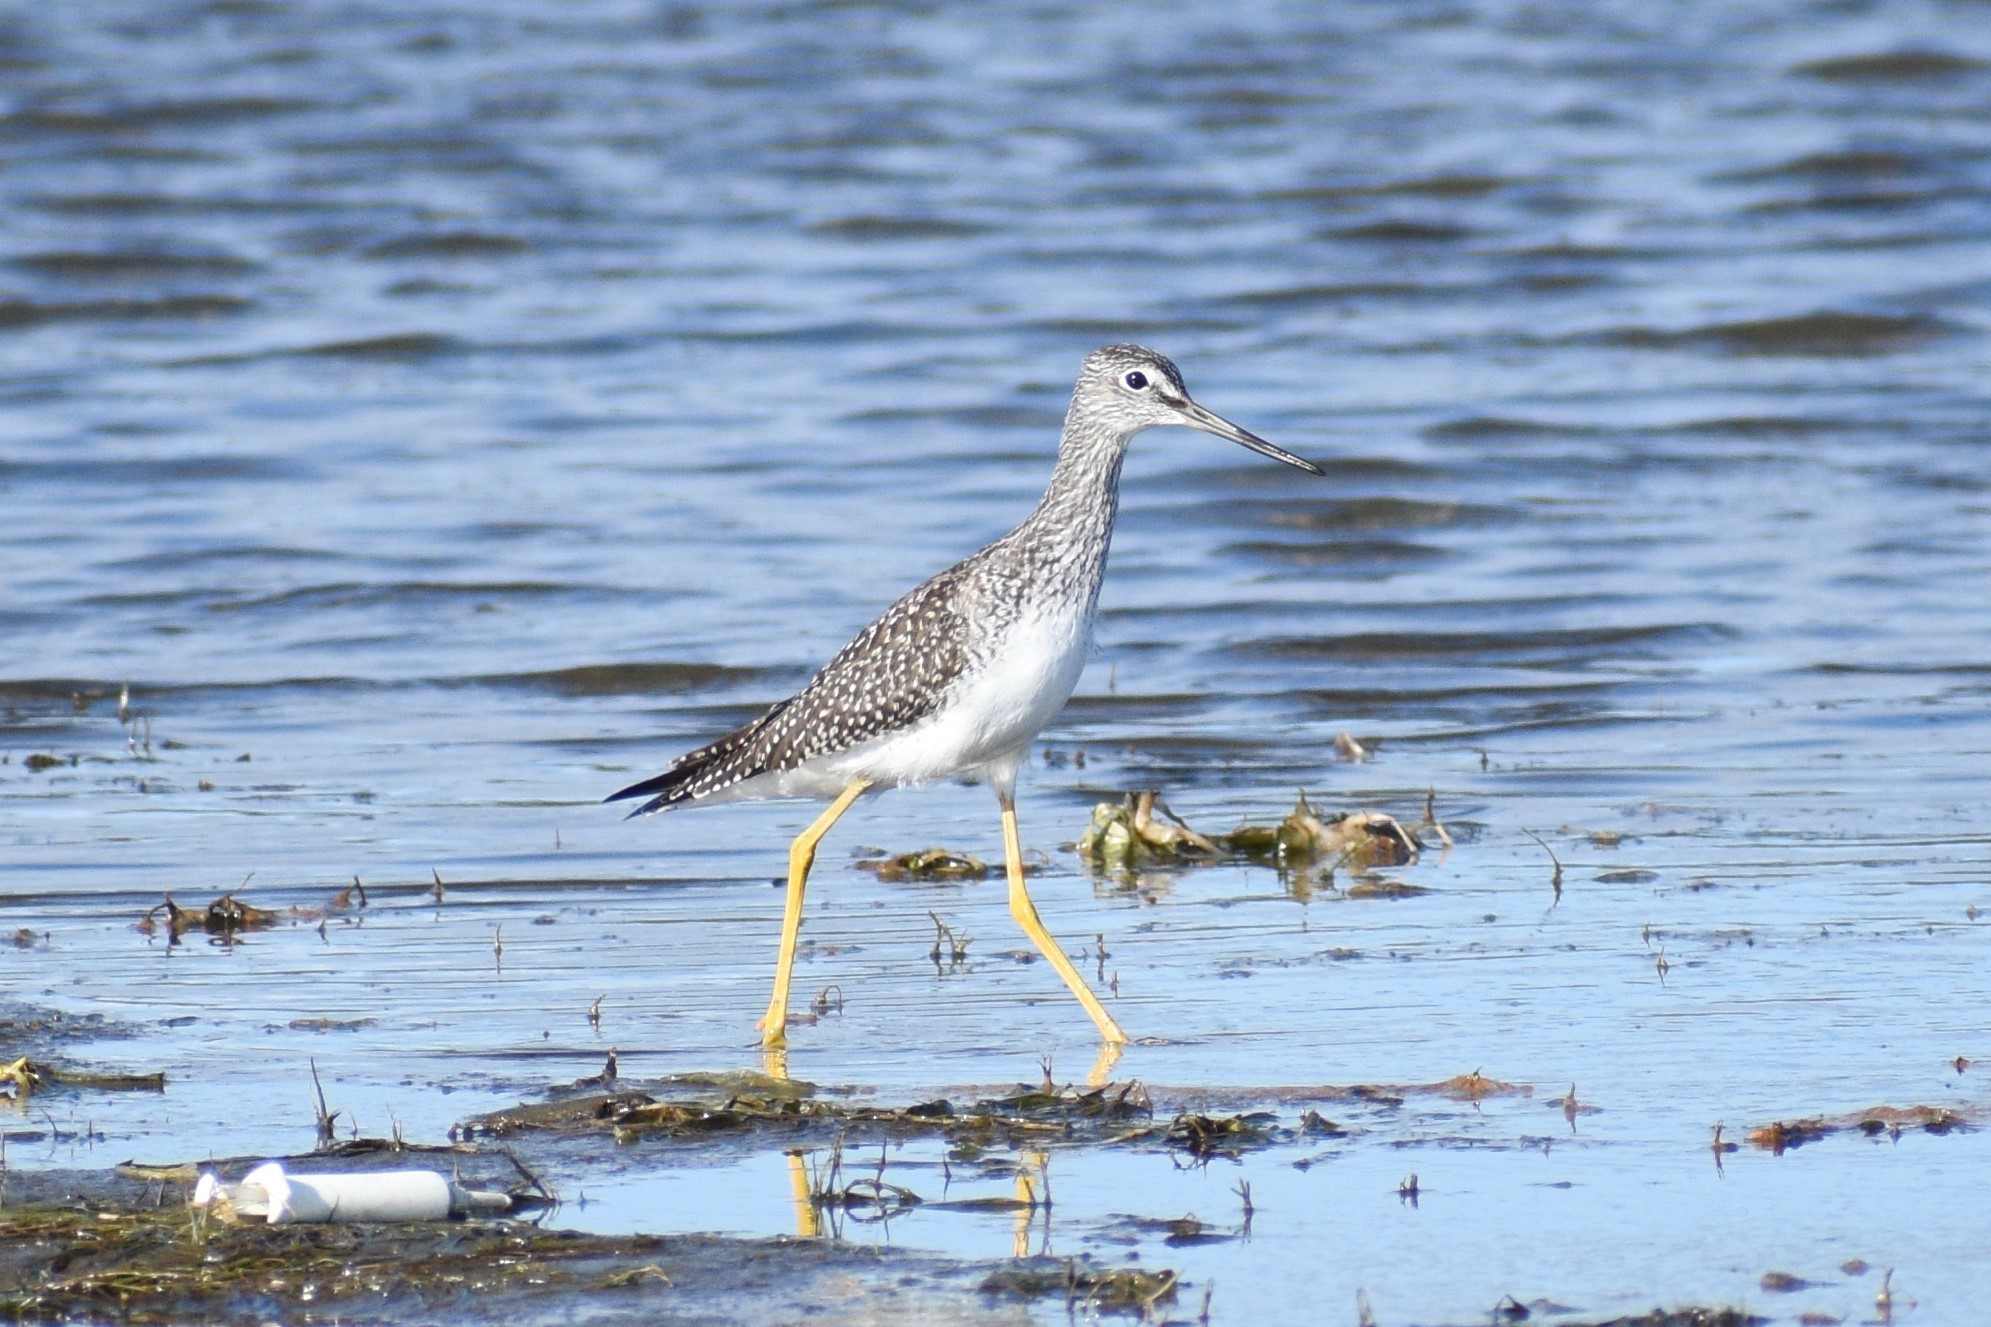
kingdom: Animalia
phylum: Chordata
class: Aves
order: Charadriiformes
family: Scolopacidae
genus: Tringa
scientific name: Tringa melanoleuca
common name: Greater yellowlegs
